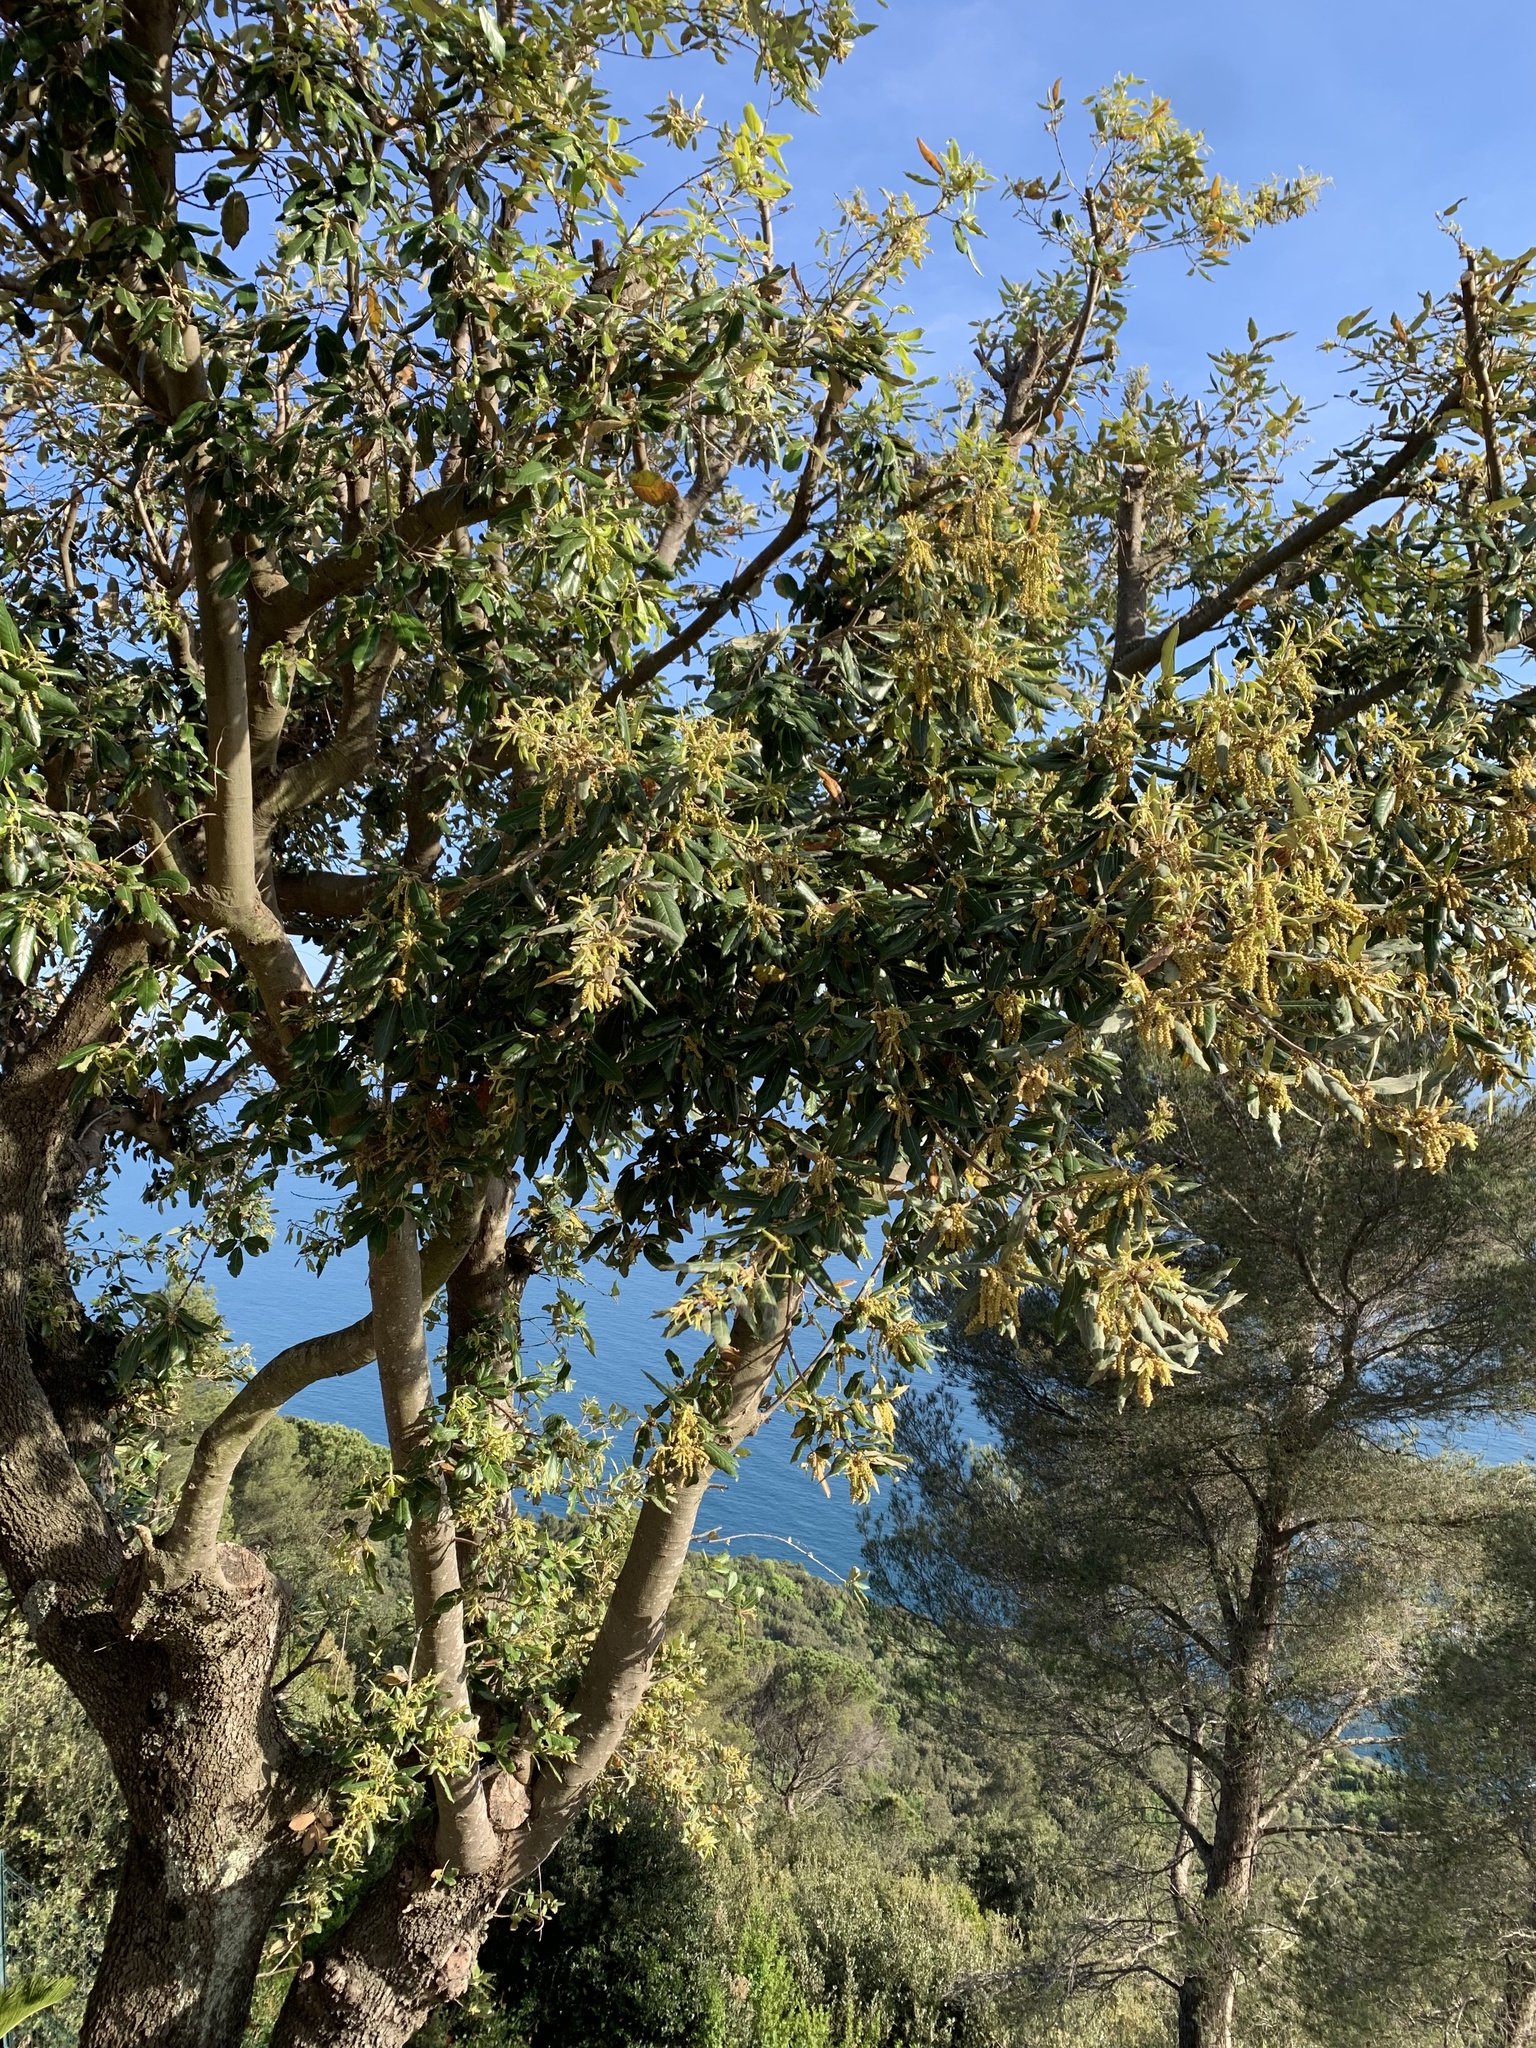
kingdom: Plantae
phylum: Tracheophyta
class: Magnoliopsida
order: Fagales
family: Fagaceae
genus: Quercus
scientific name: Quercus ilex
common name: Evergreen oak
